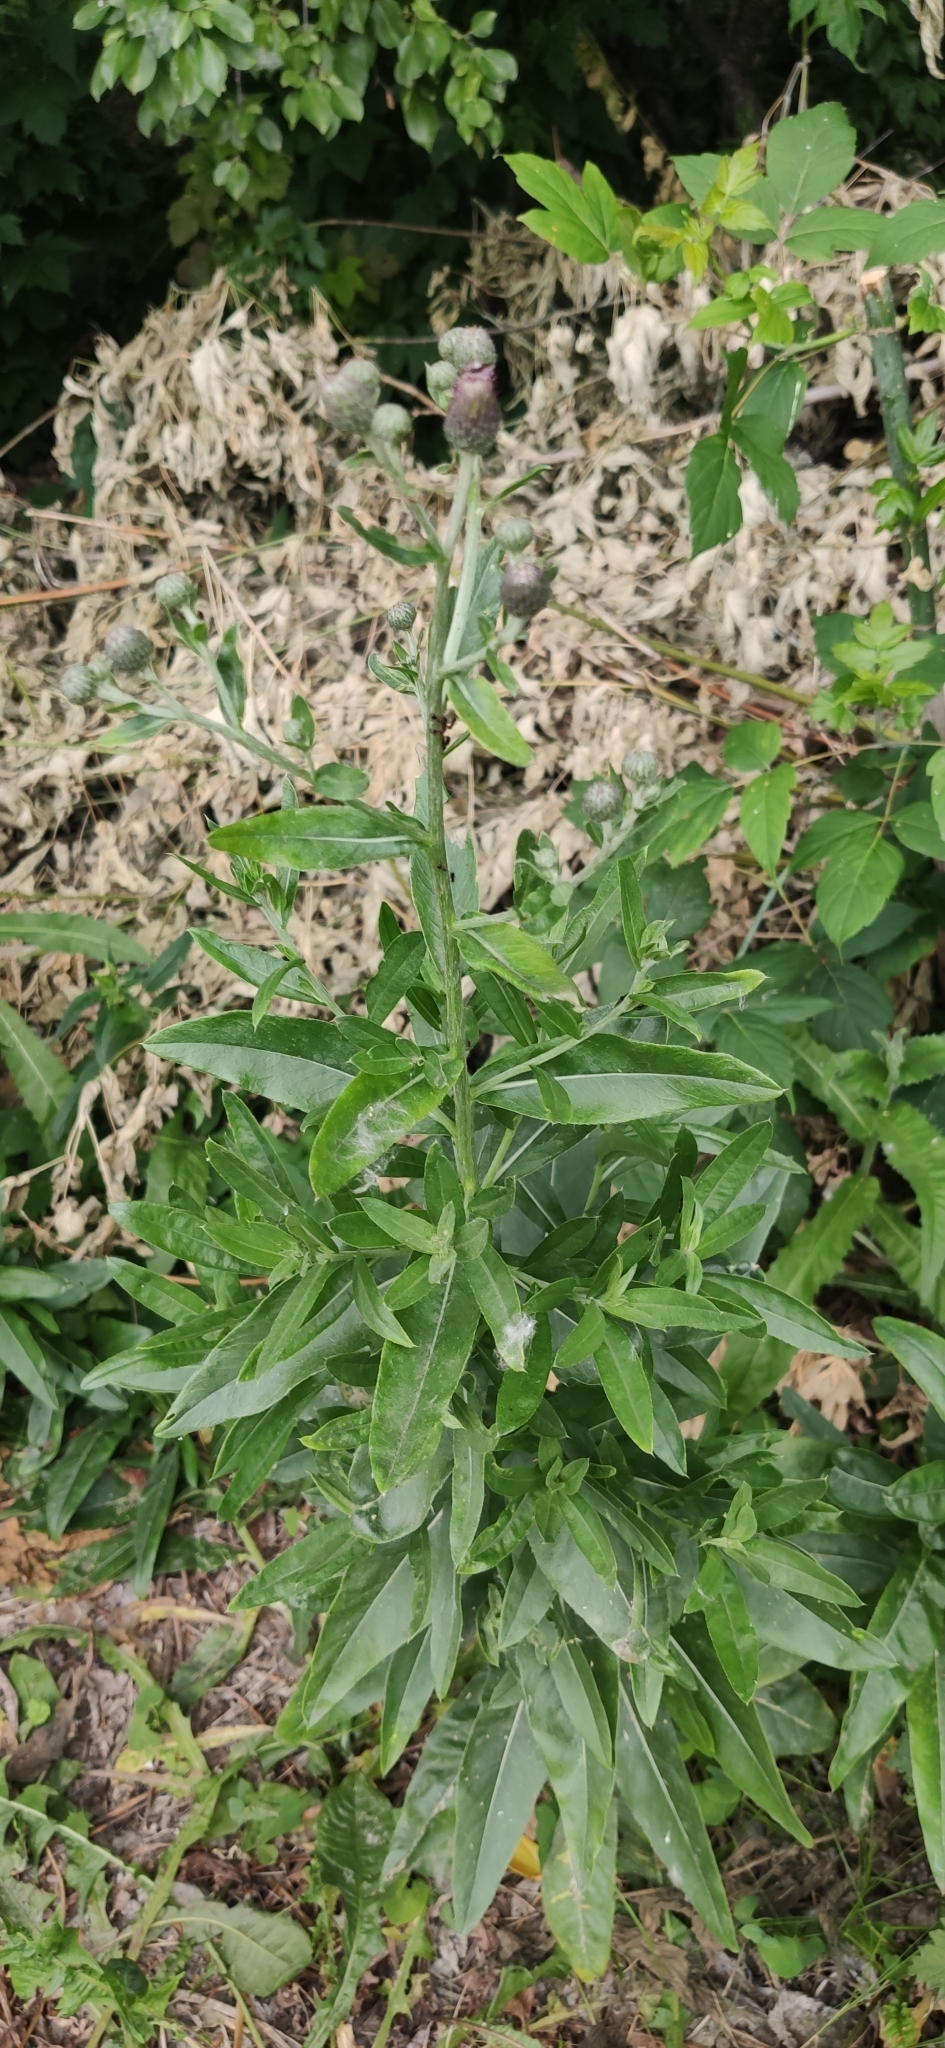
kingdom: Plantae
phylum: Tracheophyta
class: Magnoliopsida
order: Asterales
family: Asteraceae
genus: Cirsium
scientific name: Cirsium arvense
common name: Creeping thistle
